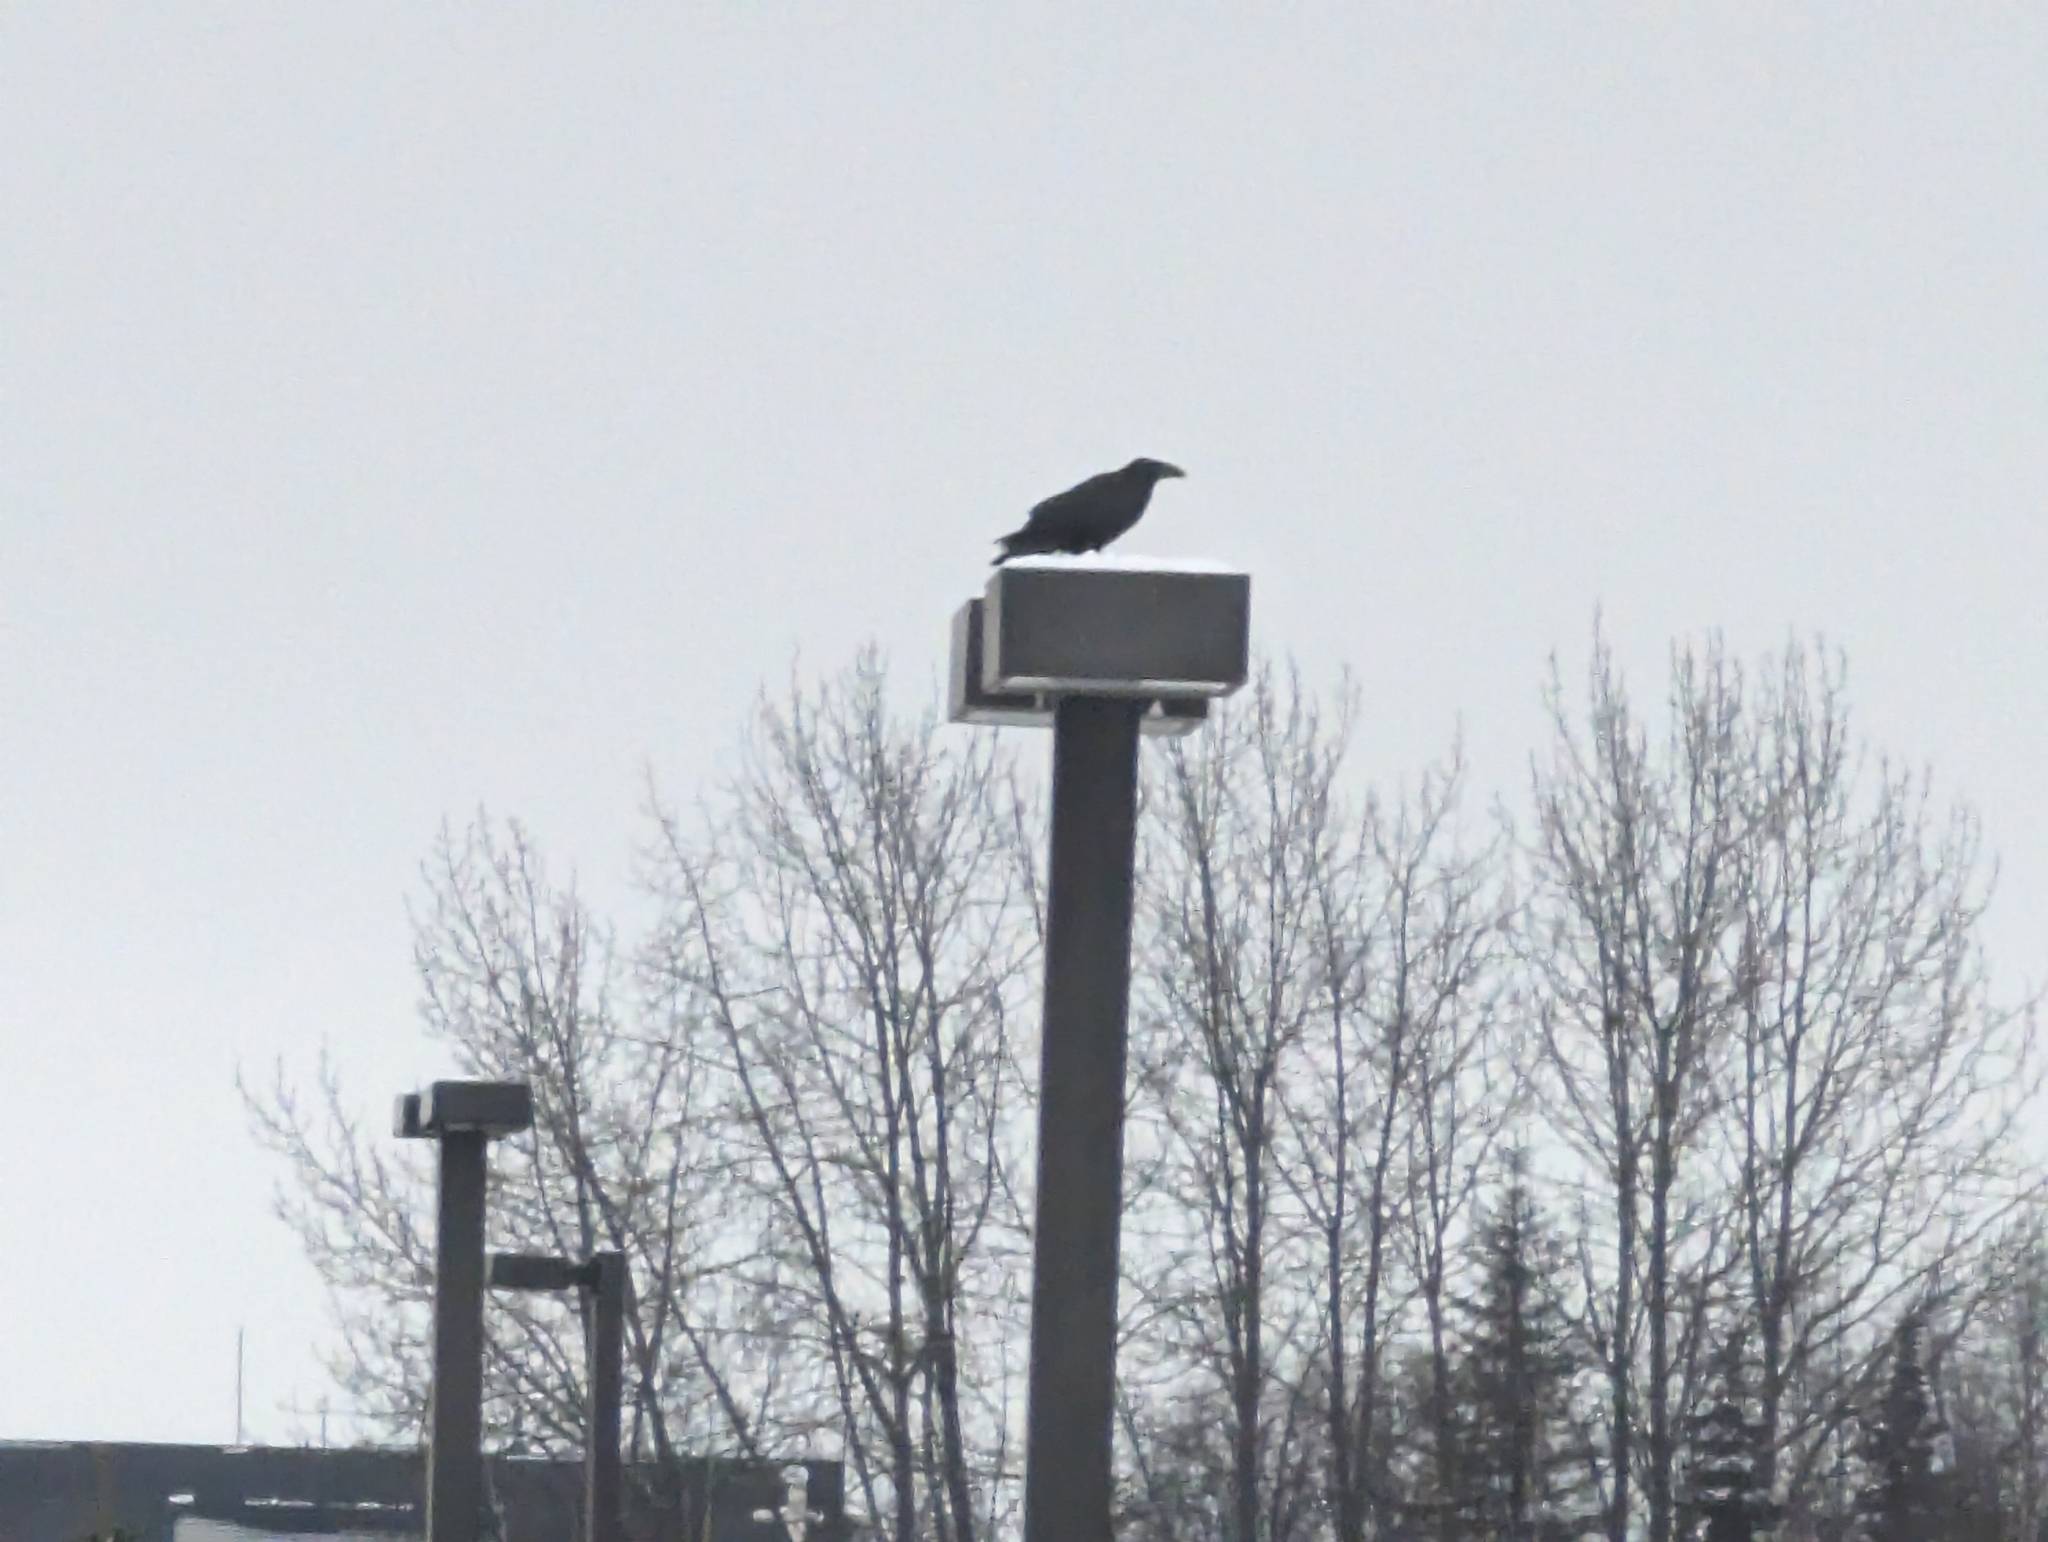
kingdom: Animalia
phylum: Chordata
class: Aves
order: Passeriformes
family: Corvidae
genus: Corvus
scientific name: Corvus corax
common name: Common raven
